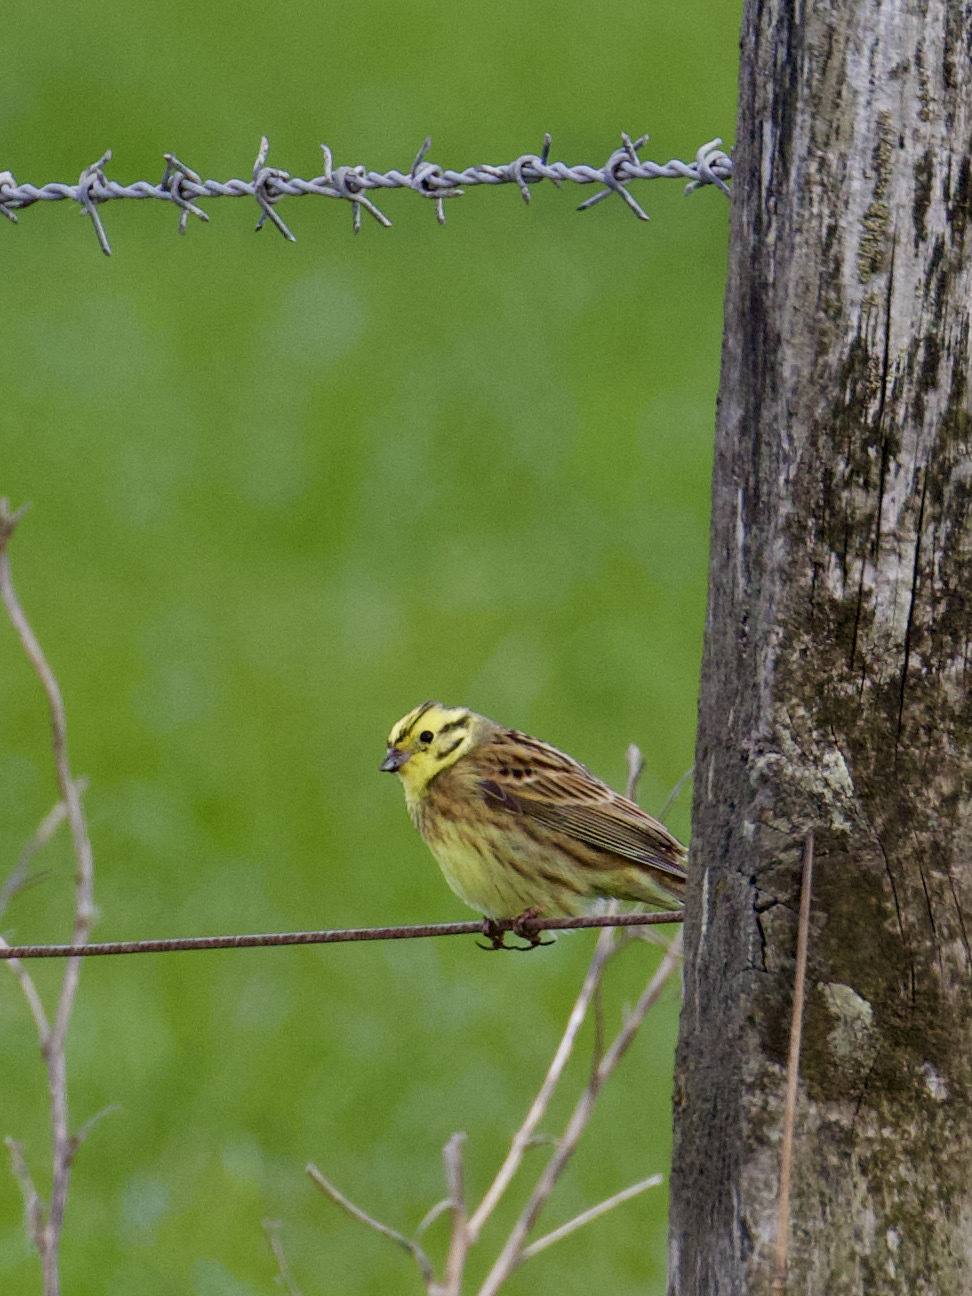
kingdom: Animalia
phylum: Chordata
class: Aves
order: Passeriformes
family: Emberizidae
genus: Emberiza
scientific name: Emberiza citrinella
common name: Yellowhammer
